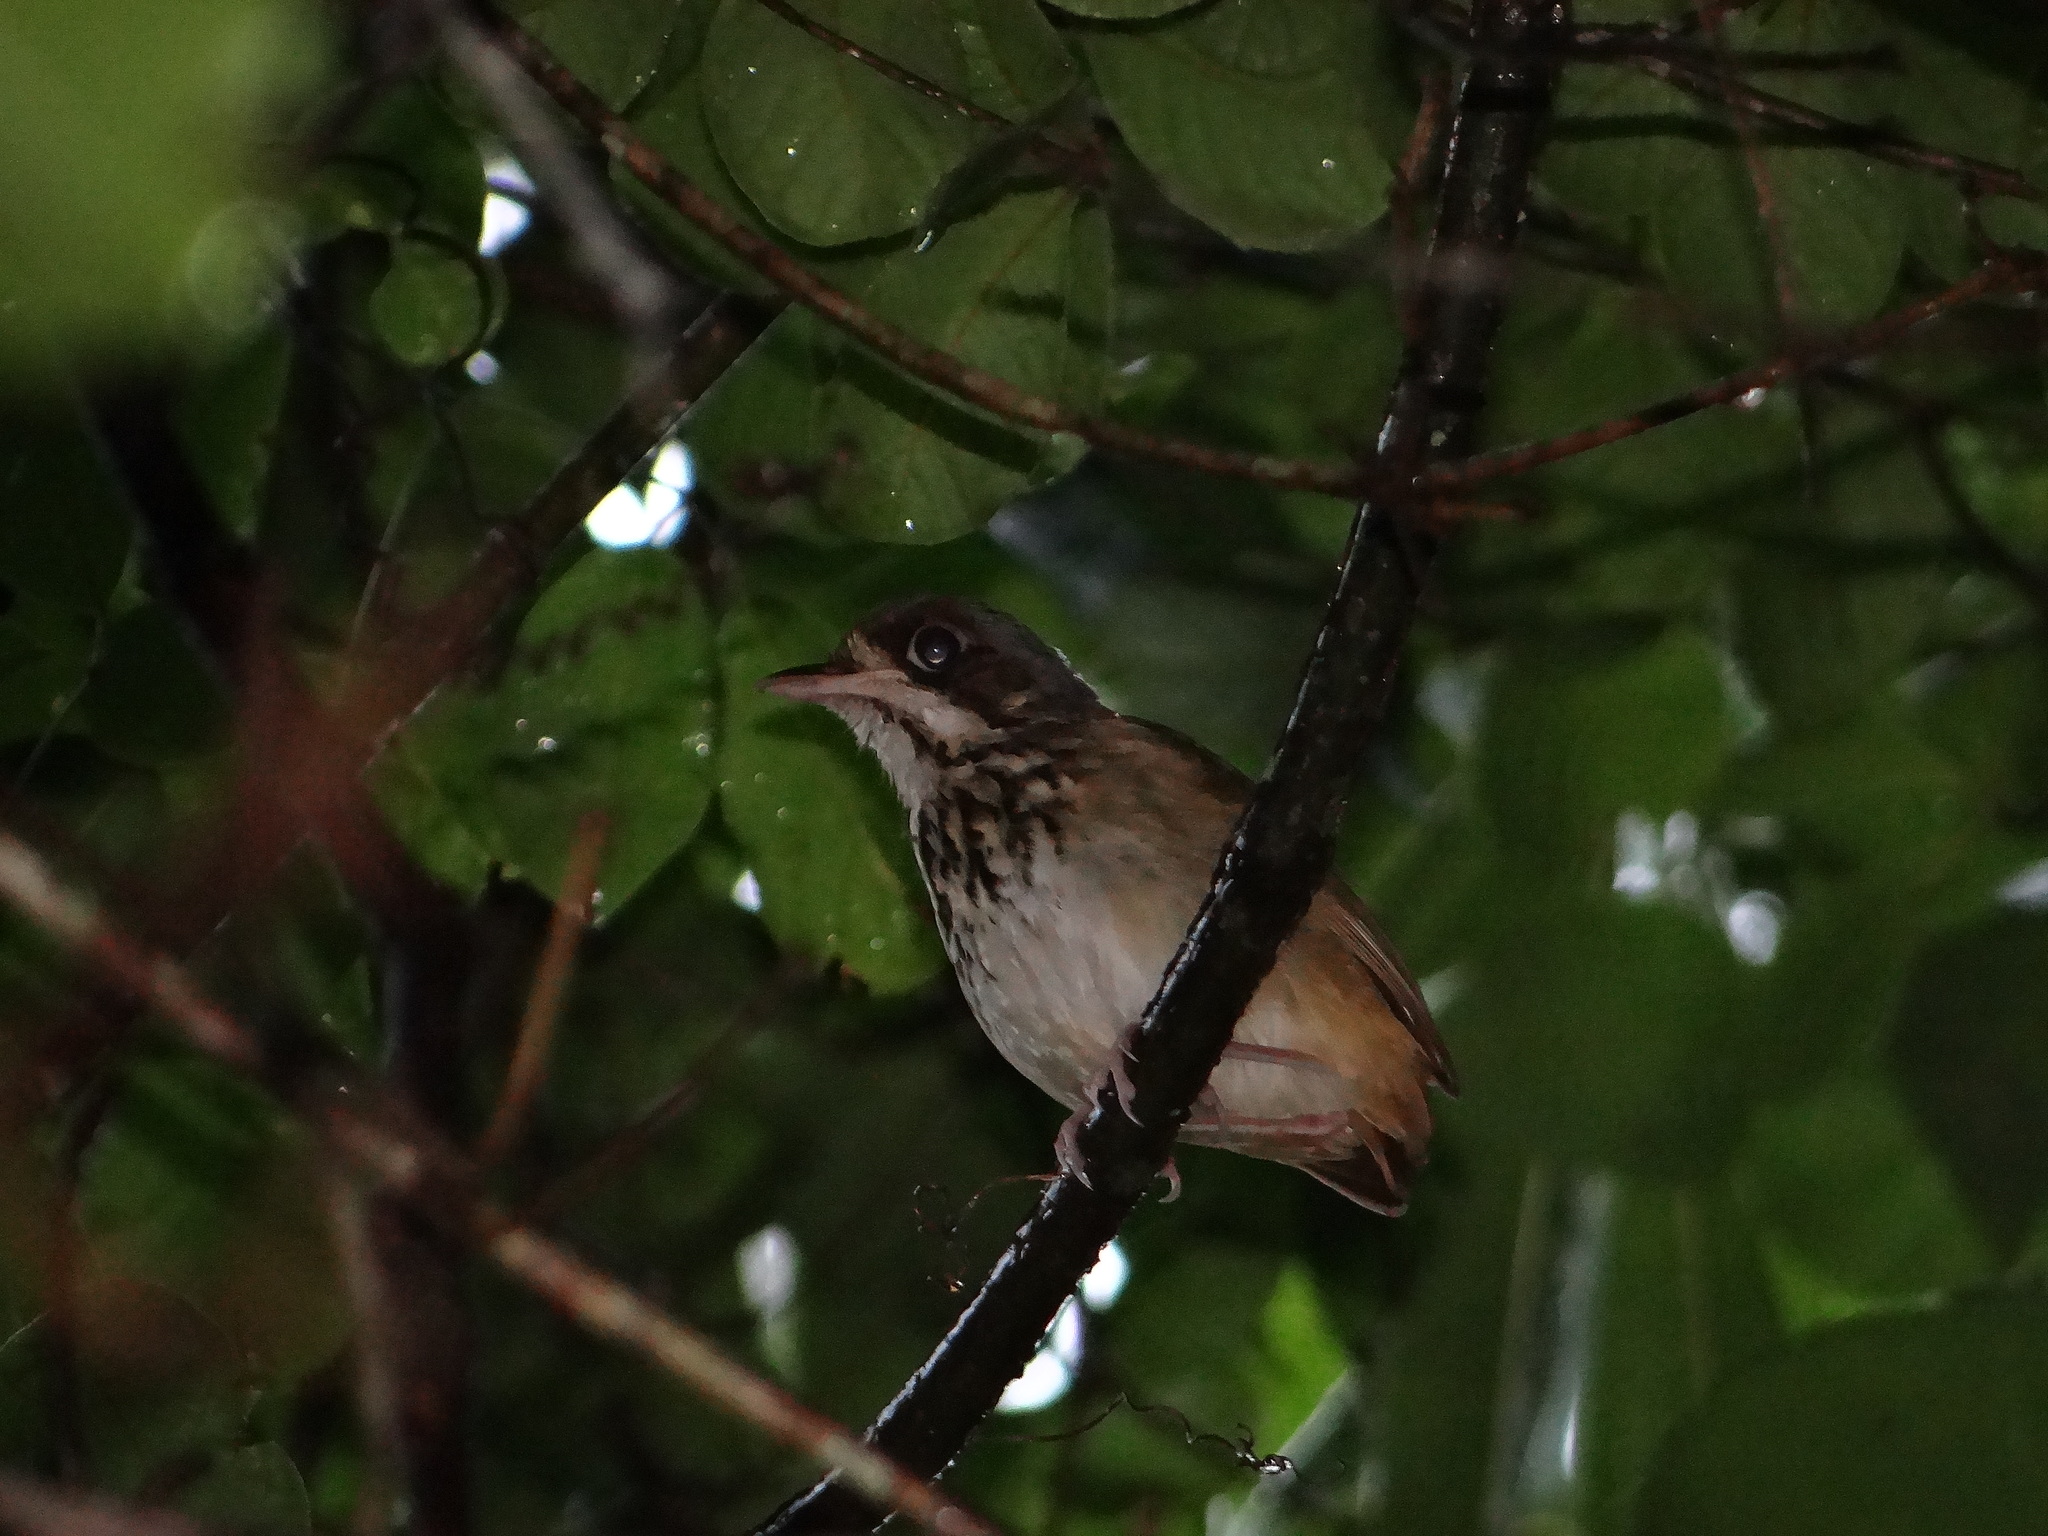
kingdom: Animalia
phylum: Chordata
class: Aves
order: Passeriformes
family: Grallariidae
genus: Hylopezus
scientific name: Hylopezus auricularis
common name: Masked antpitta
